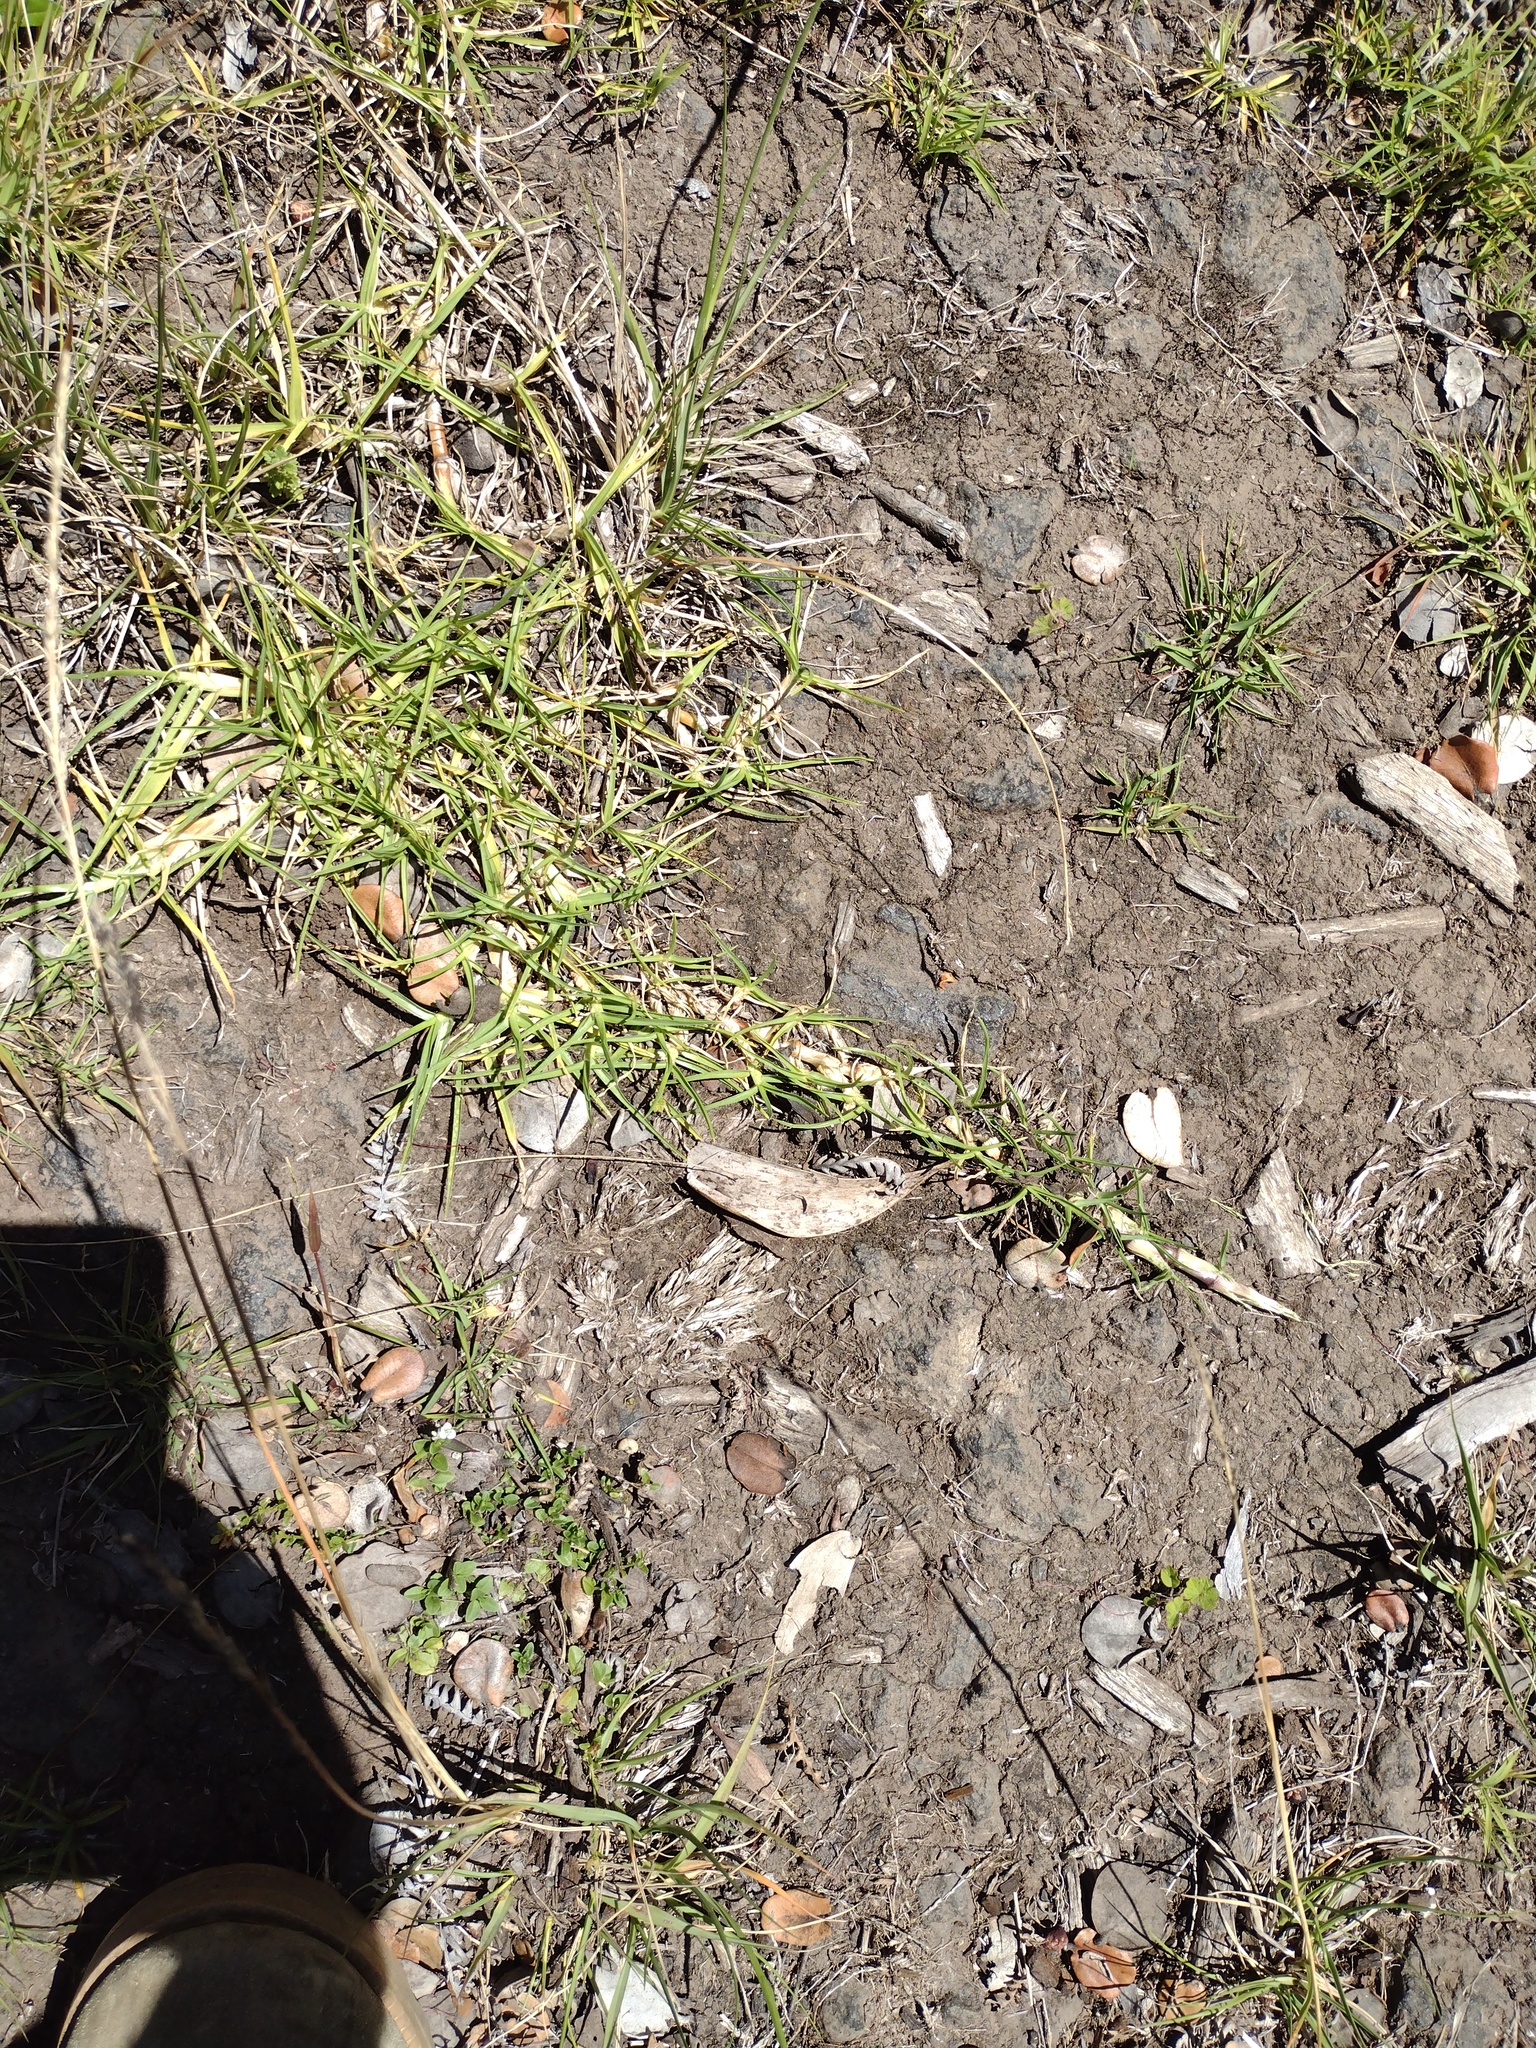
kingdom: Plantae
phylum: Tracheophyta
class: Liliopsida
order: Poales
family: Poaceae
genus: Cenchrus
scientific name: Cenchrus clandestinus
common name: Kikuyugrass
